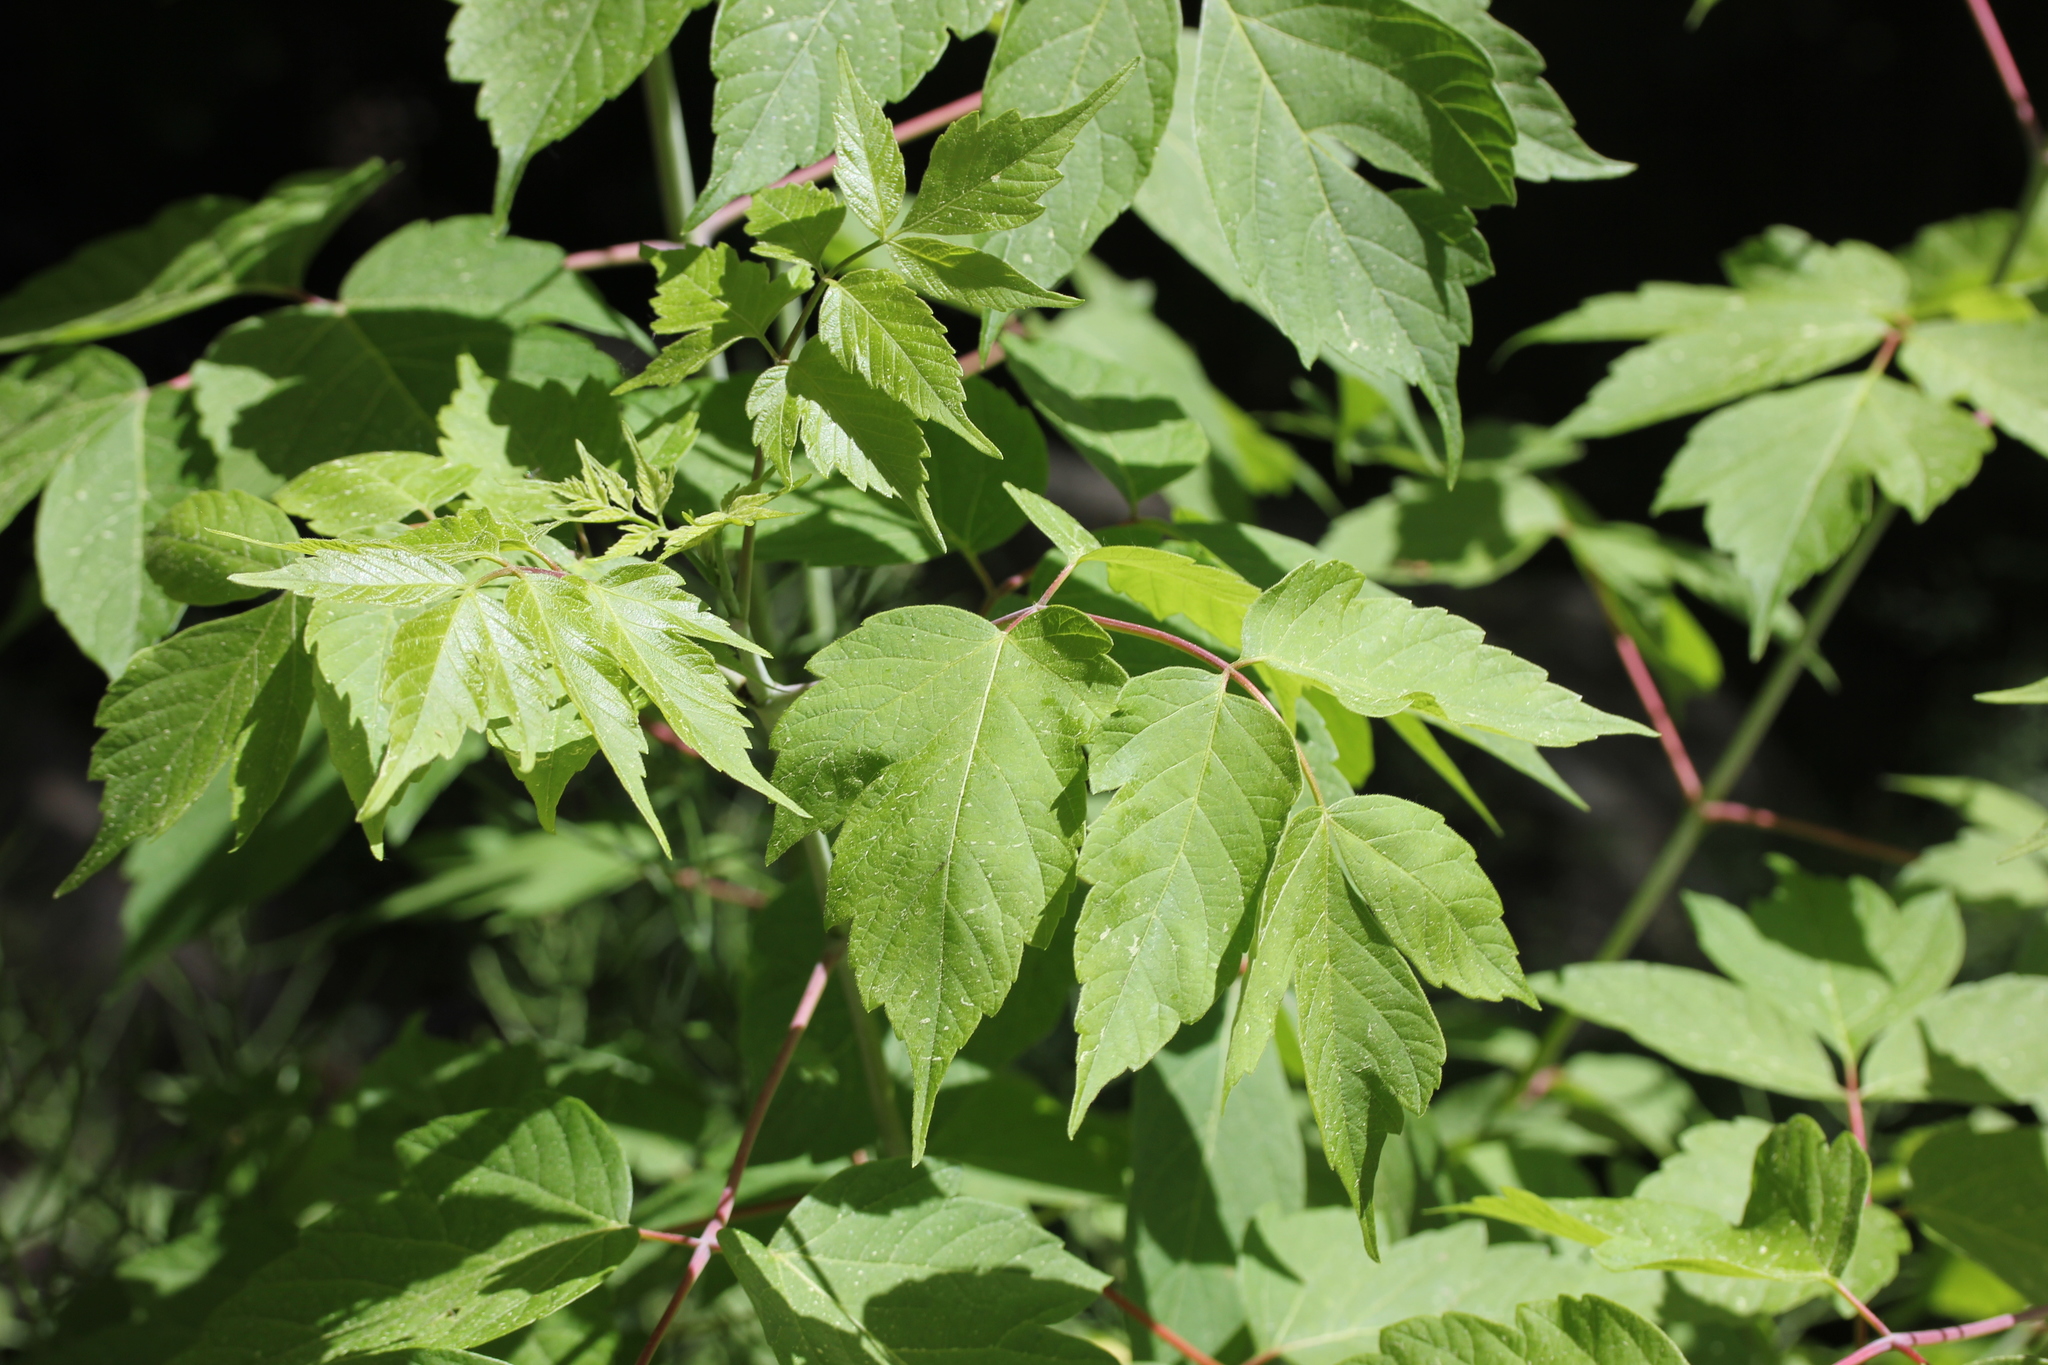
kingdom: Plantae
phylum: Tracheophyta
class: Magnoliopsida
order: Sapindales
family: Sapindaceae
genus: Acer
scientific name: Acer negundo
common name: Ashleaf maple
